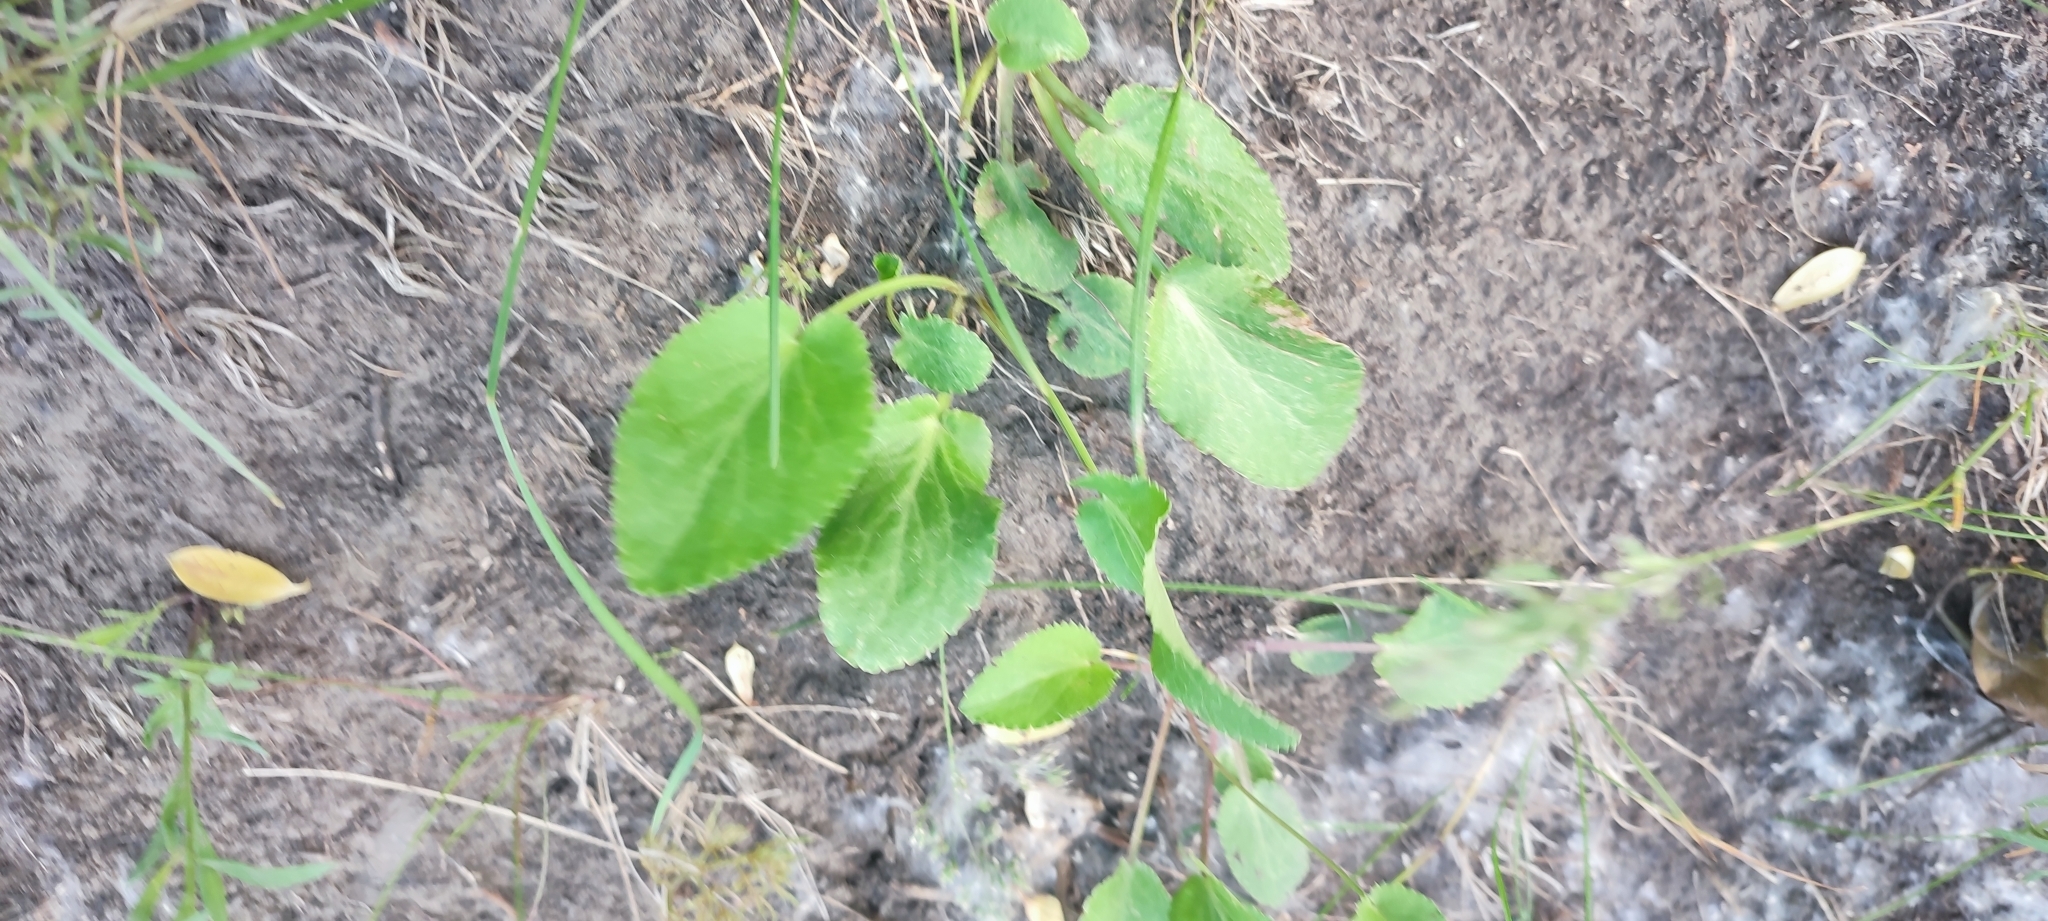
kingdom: Plantae
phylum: Tracheophyta
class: Magnoliopsida
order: Apiales
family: Apiaceae
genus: Eryngium
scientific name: Eryngium planum
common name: Blue eryngo
